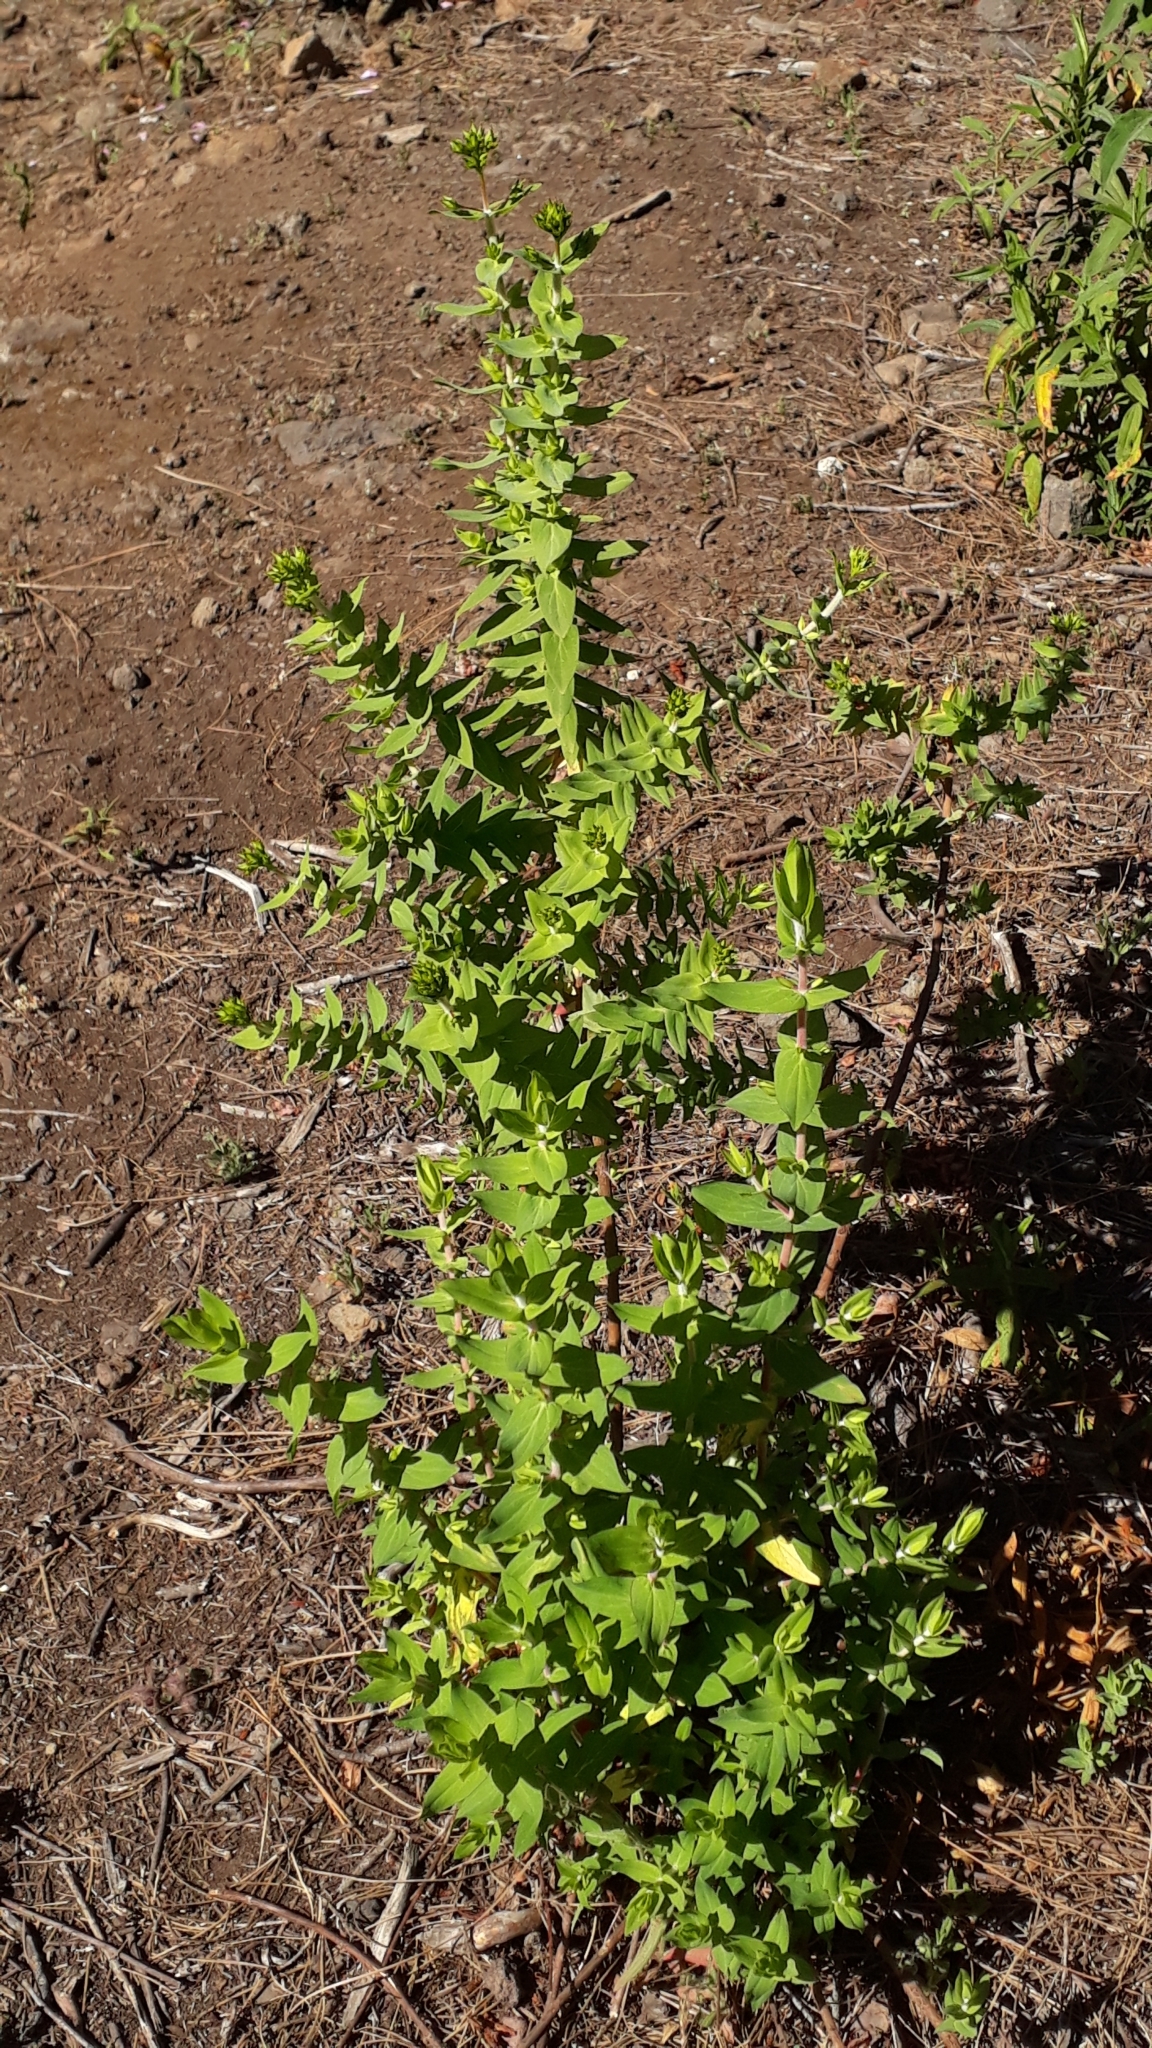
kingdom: Plantae
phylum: Tracheophyta
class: Magnoliopsida
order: Malpighiales
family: Hypericaceae
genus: Hypericum
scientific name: Hypericum reflexum
